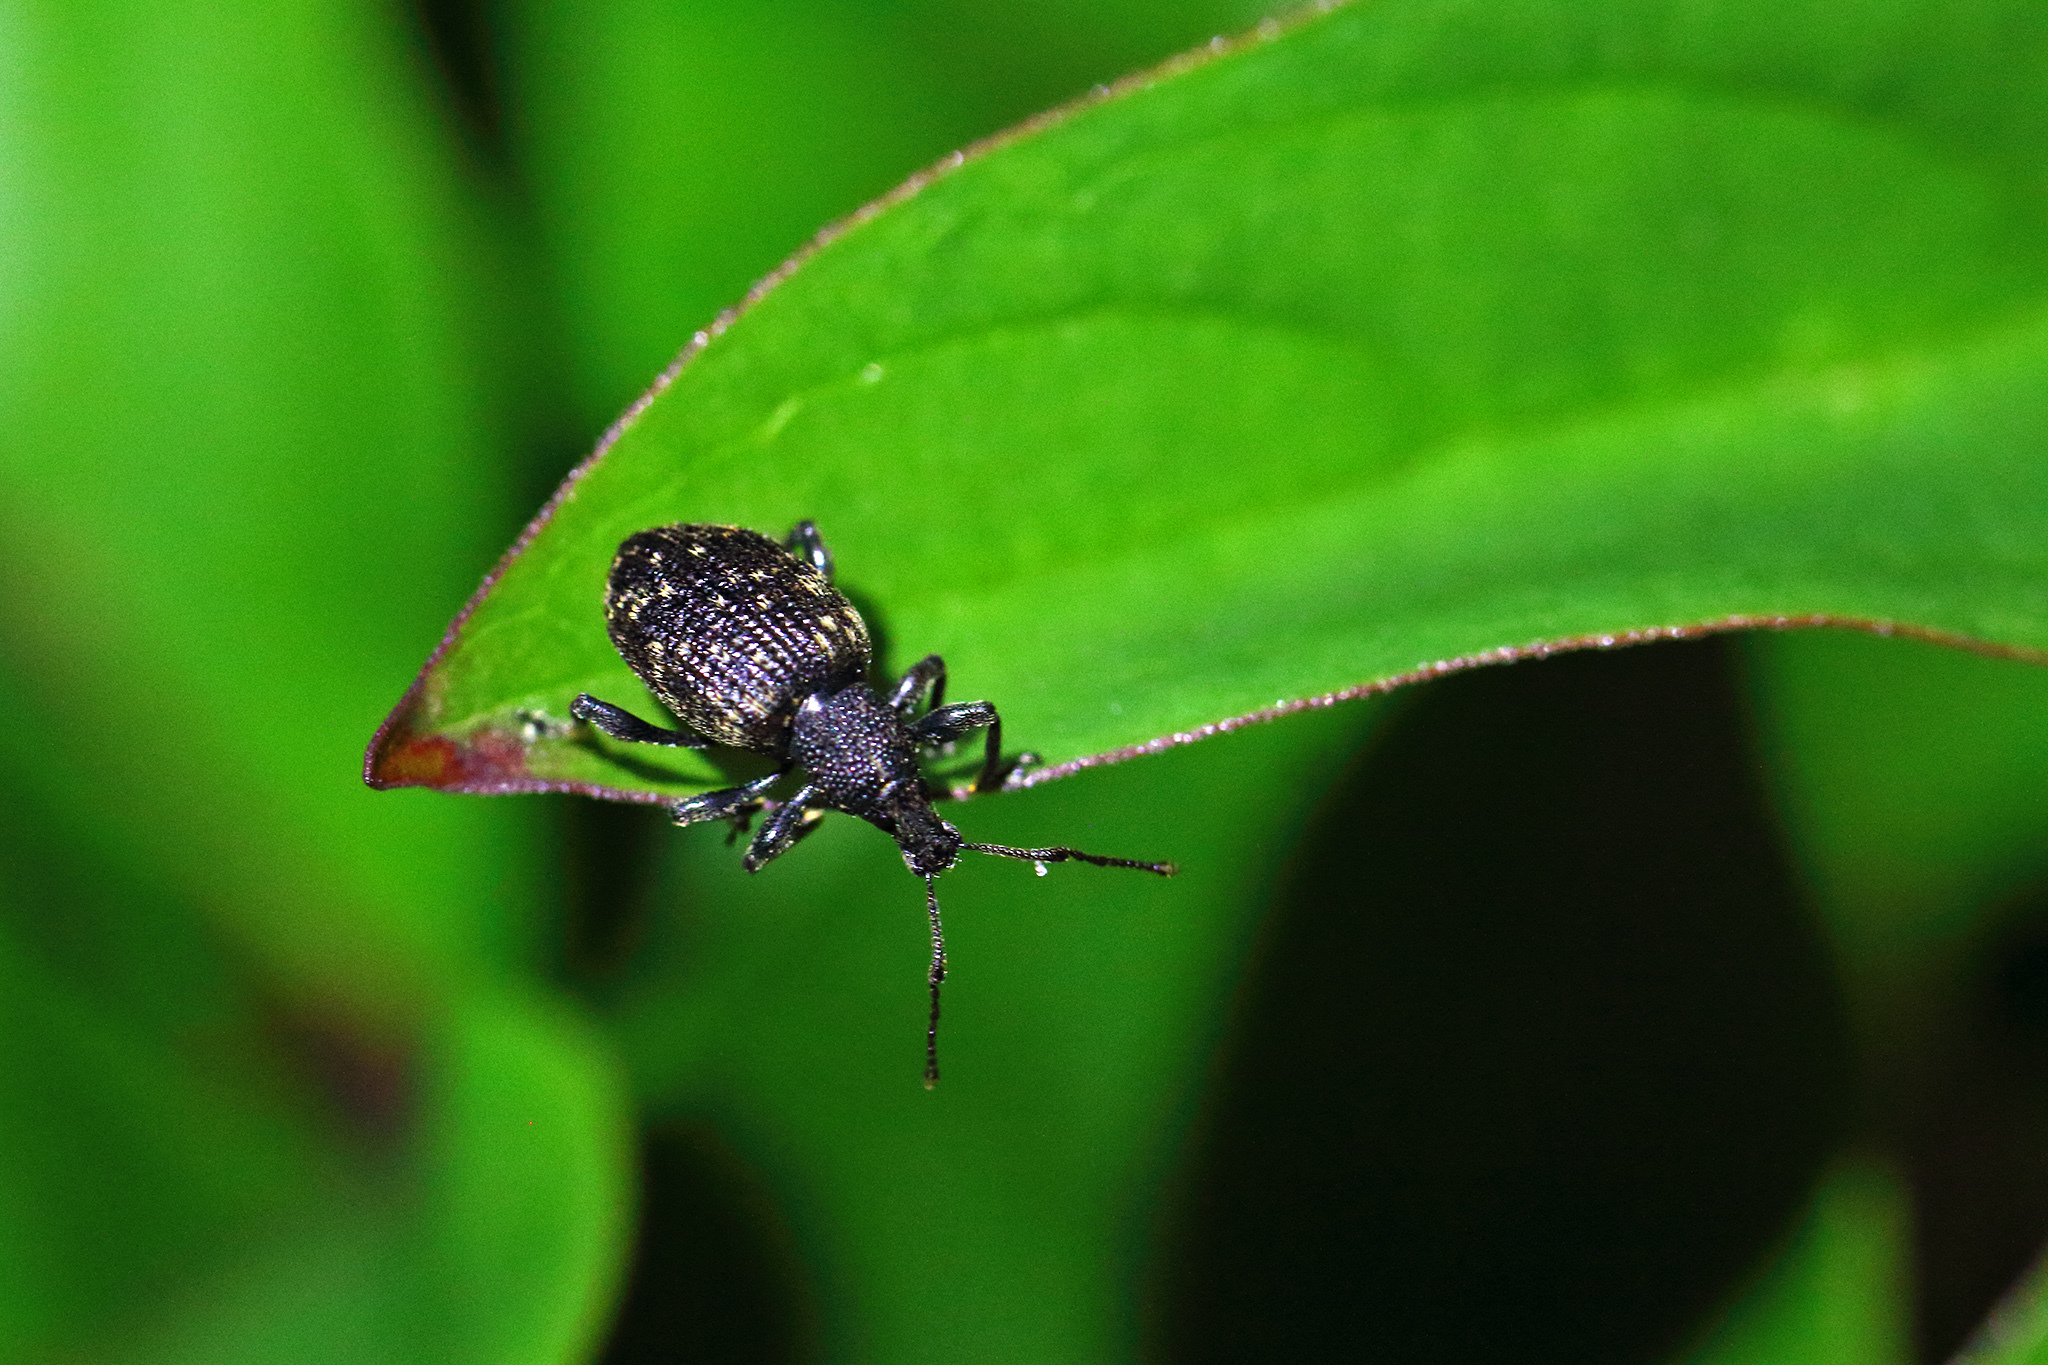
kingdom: Animalia
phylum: Arthropoda
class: Insecta
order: Coleoptera
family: Curculionidae
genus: Otiorhynchus
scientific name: Otiorhynchus sulcatus
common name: Black vine weevil
